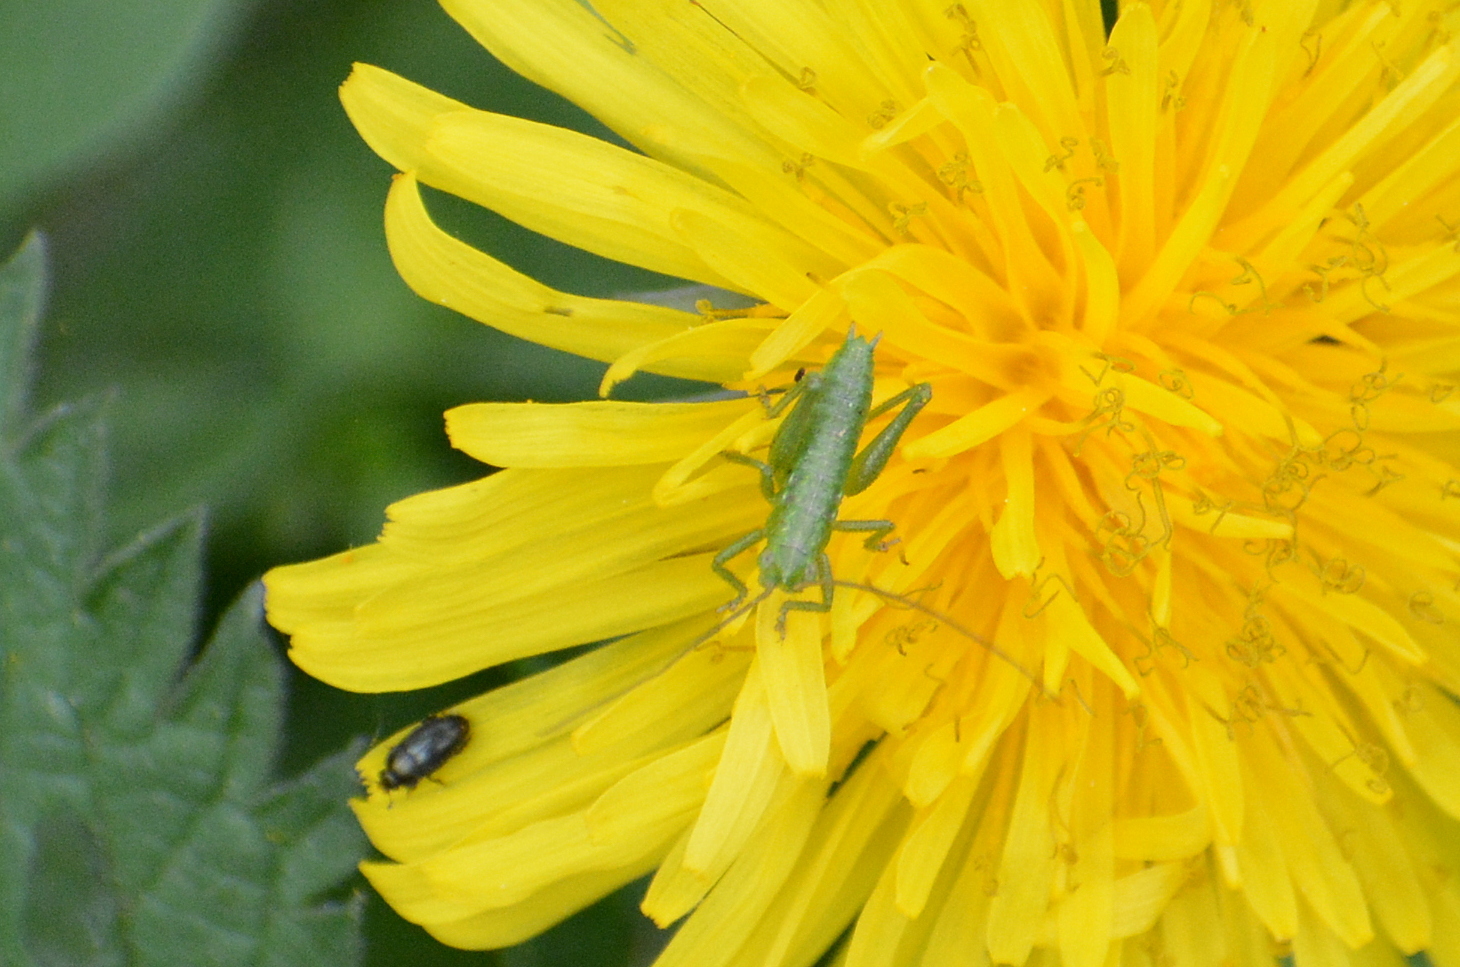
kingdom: Animalia
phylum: Arthropoda
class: Insecta
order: Orthoptera
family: Tettigoniidae
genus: Tettigonia
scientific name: Tettigonia viridissima
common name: Great green bush-cricket
